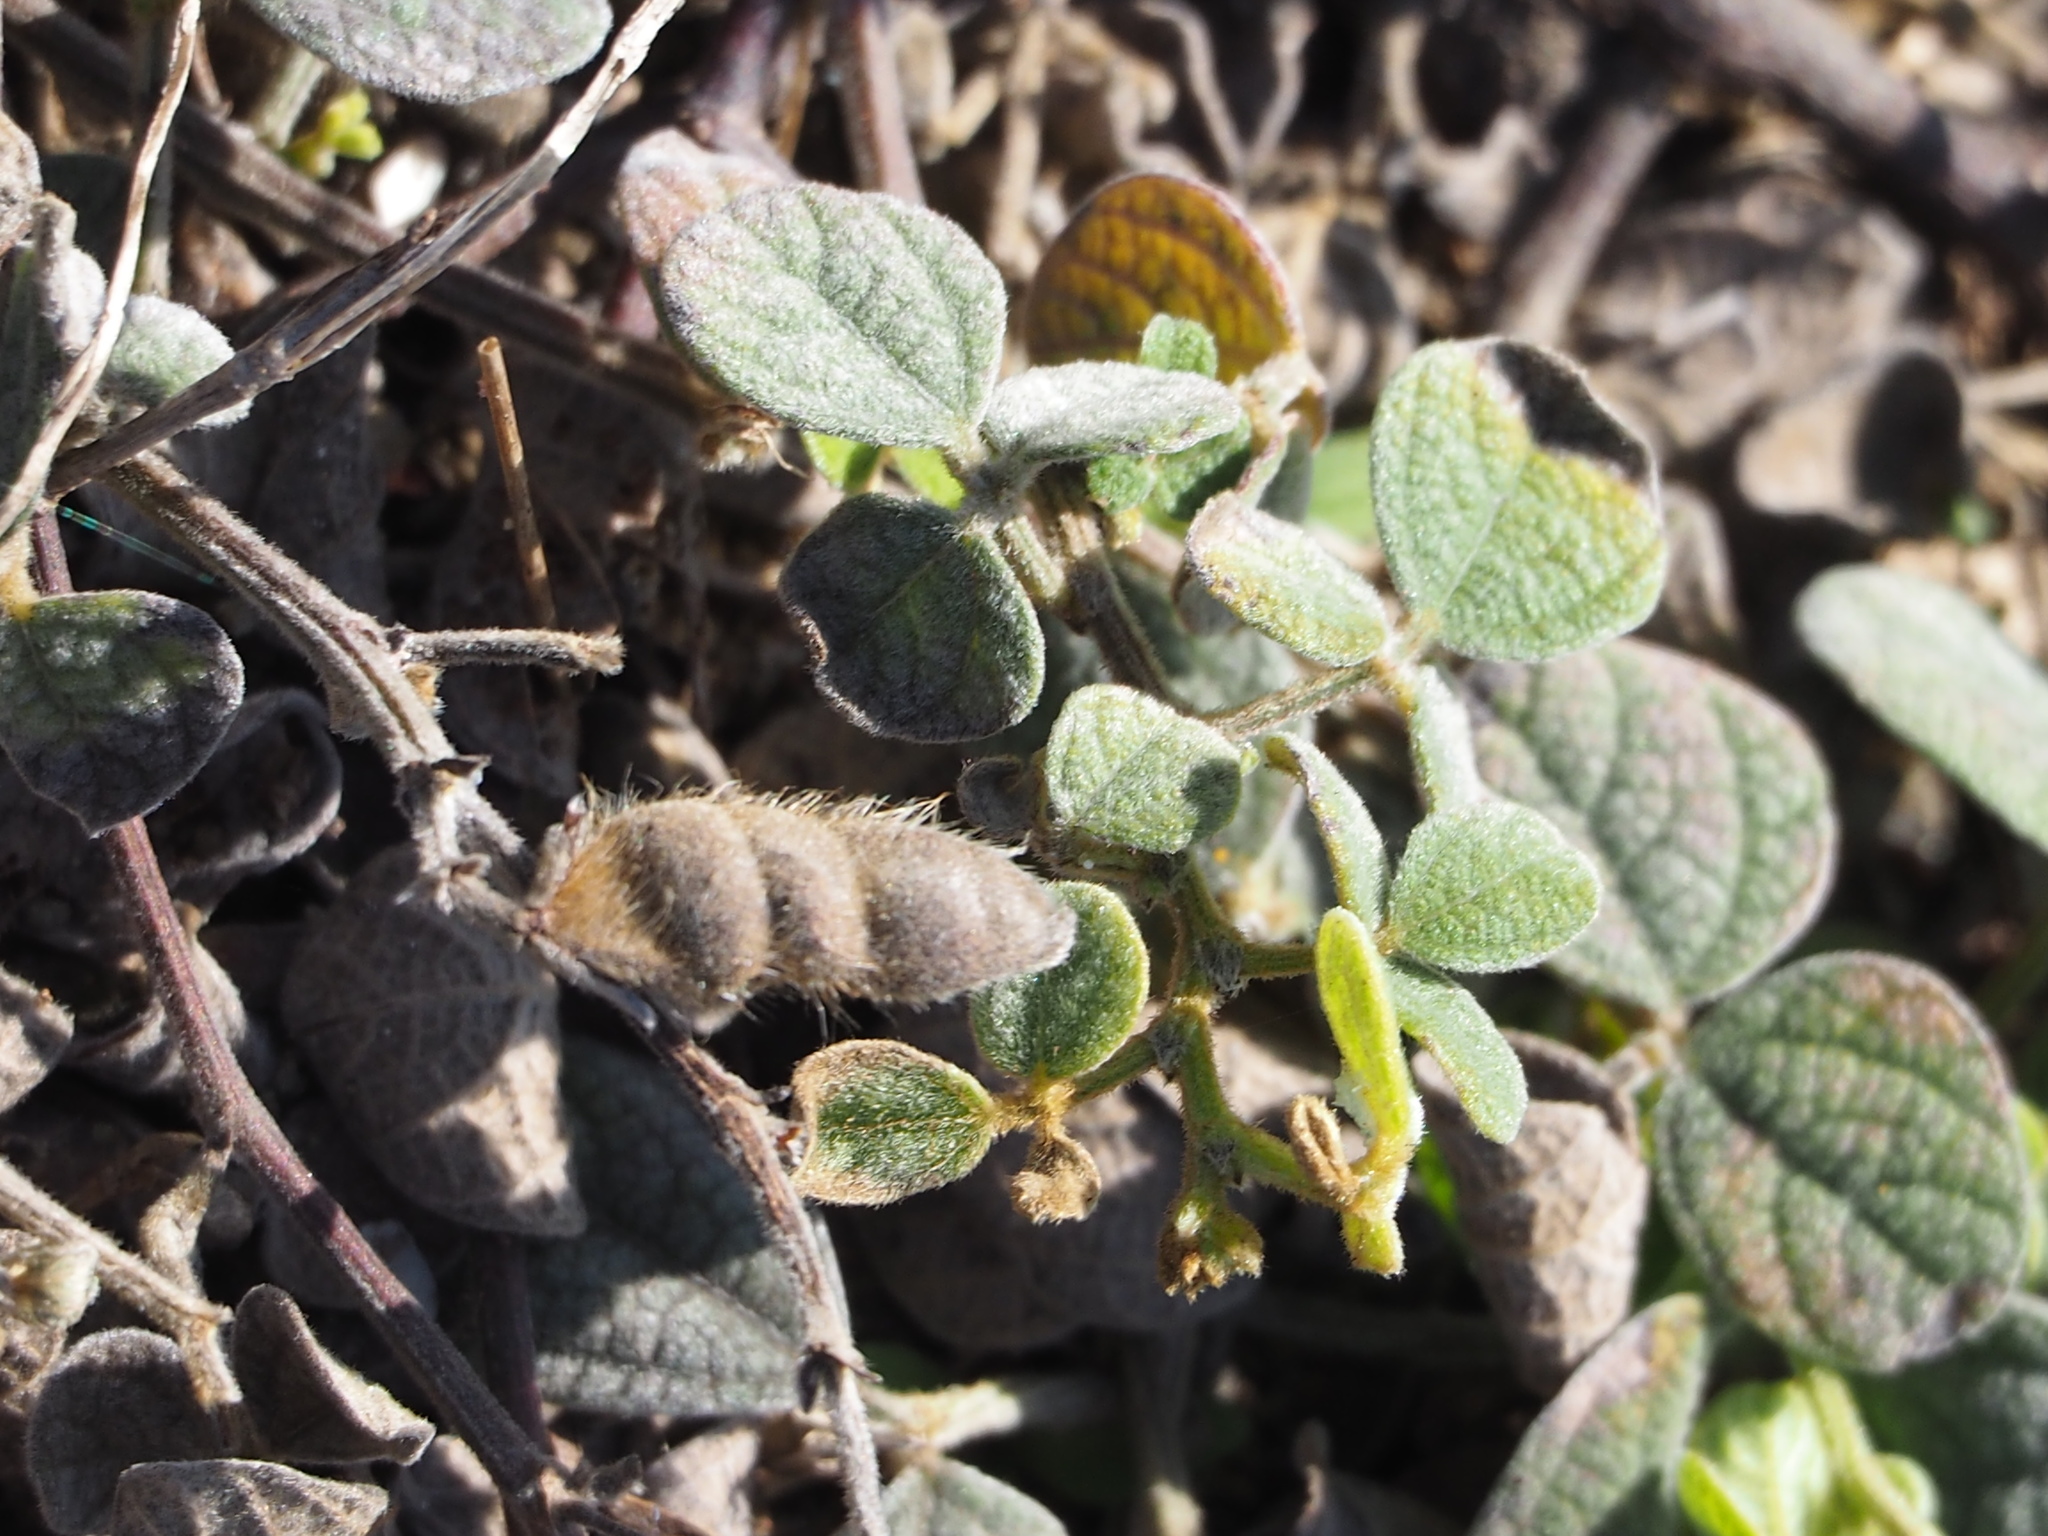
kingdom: Plantae
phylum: Tracheophyta
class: Magnoliopsida
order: Fabales
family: Fabaceae
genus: Cajanus
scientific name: Cajanus scarabaeoides
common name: Showy pigeonpea
